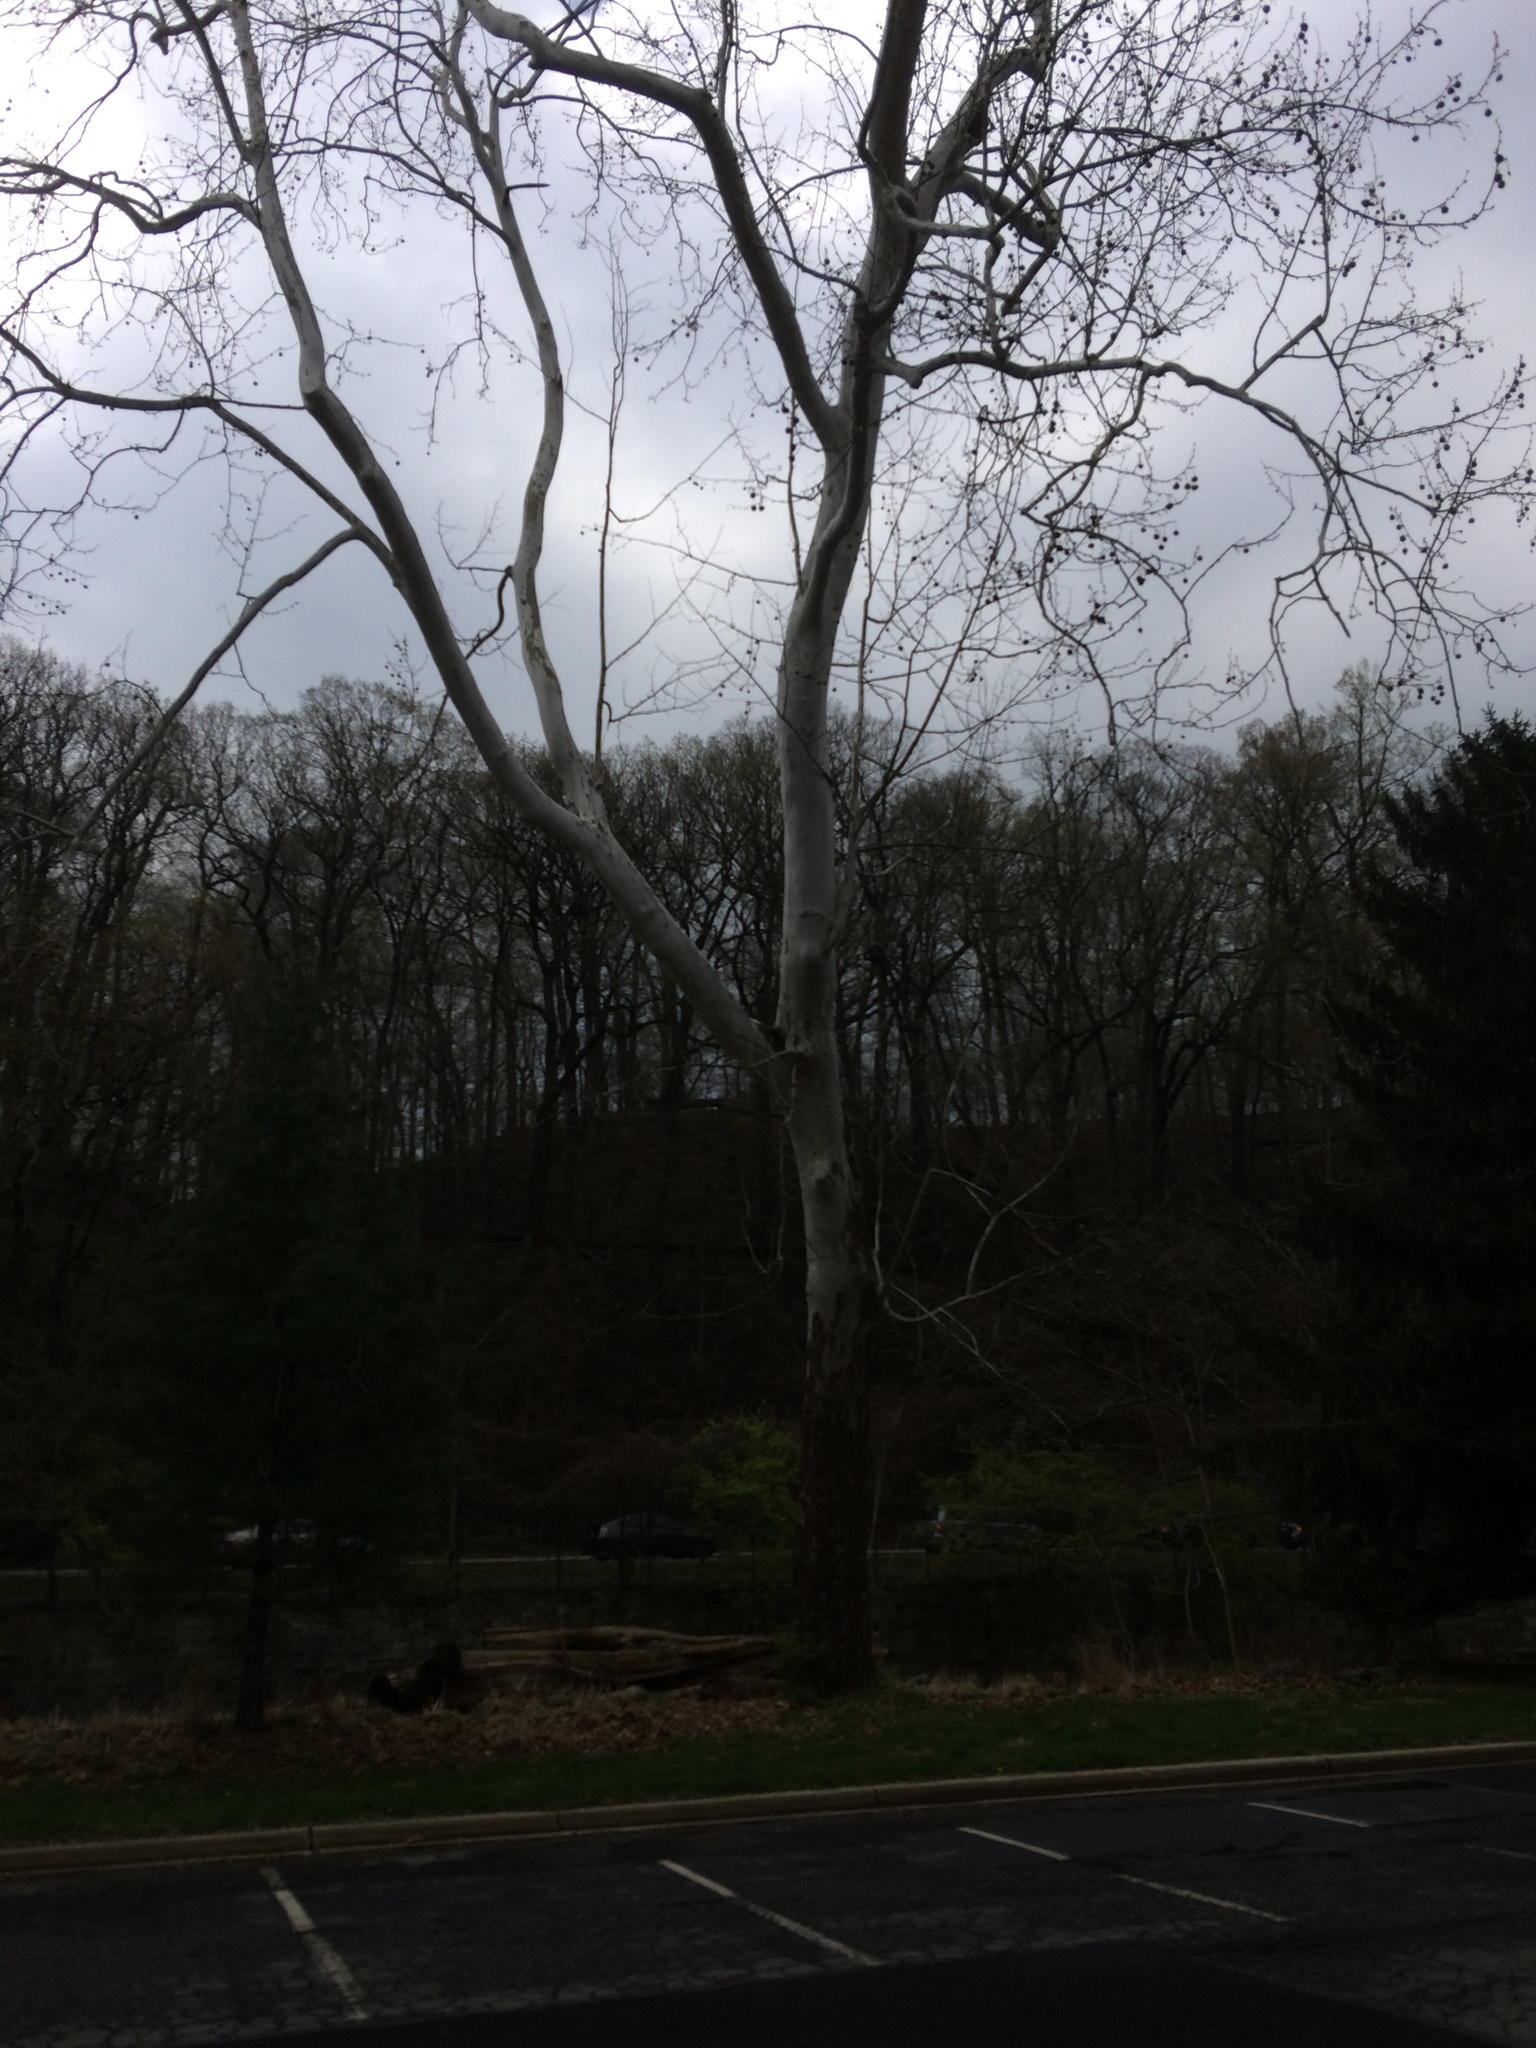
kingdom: Plantae
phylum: Tracheophyta
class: Magnoliopsida
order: Proteales
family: Platanaceae
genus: Platanus
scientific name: Platanus occidentalis
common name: American sycamore
